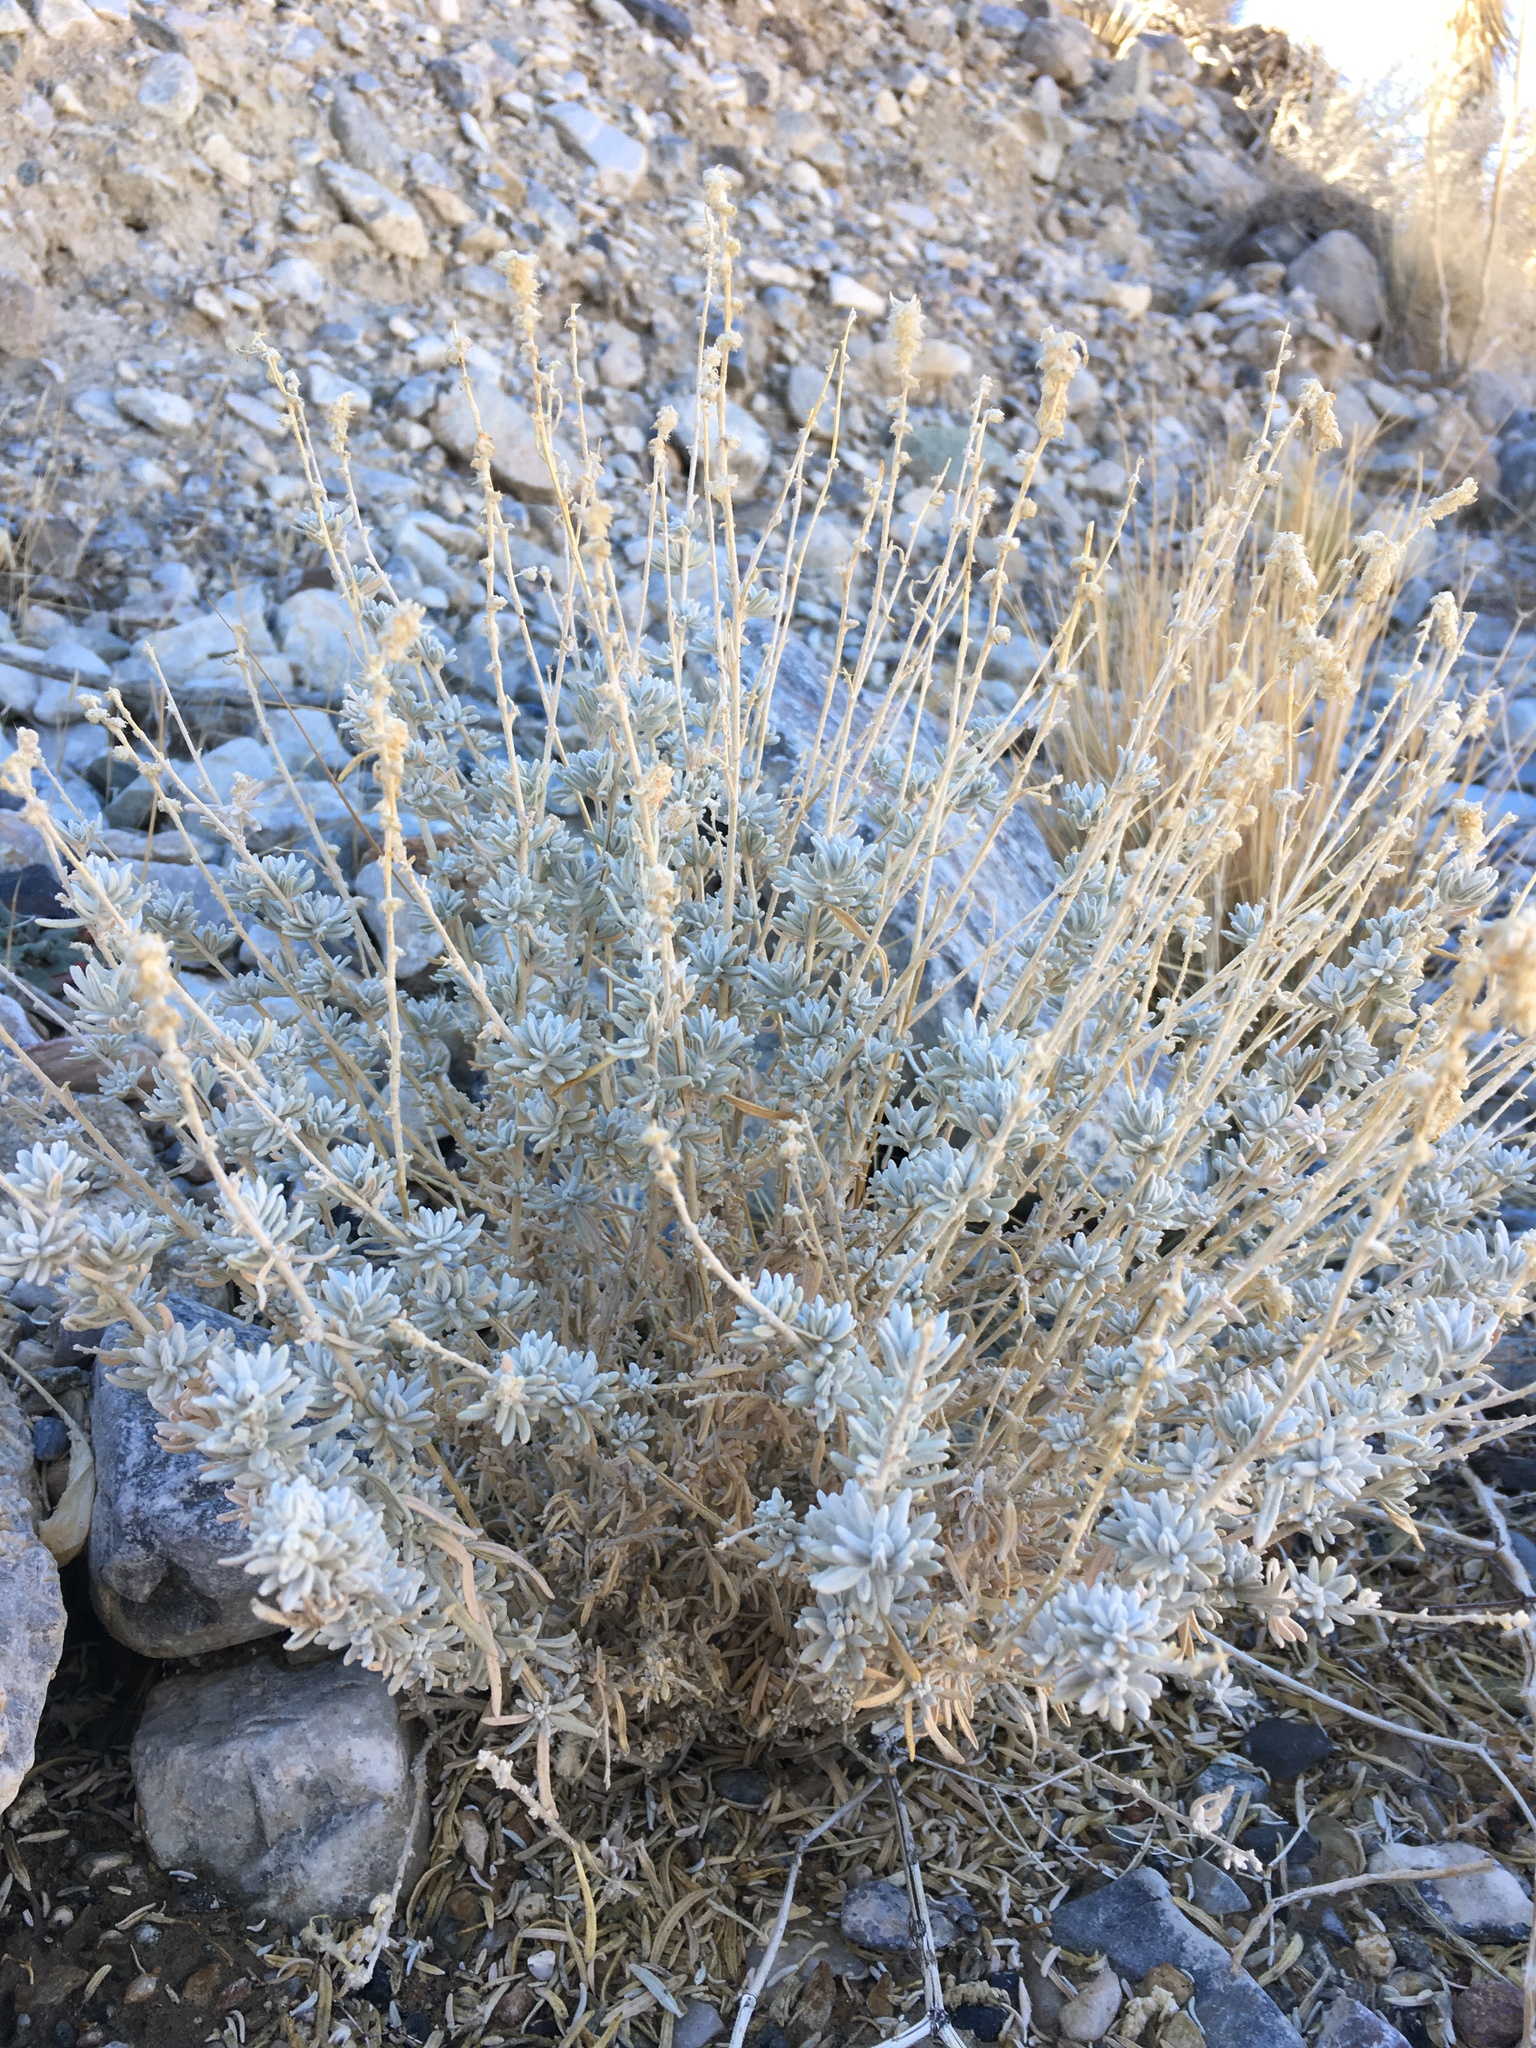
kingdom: Plantae
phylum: Tracheophyta
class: Magnoliopsida
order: Caryophyllales
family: Amaranthaceae
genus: Krascheninnikovia
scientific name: Krascheninnikovia lanata
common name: Winterfat
